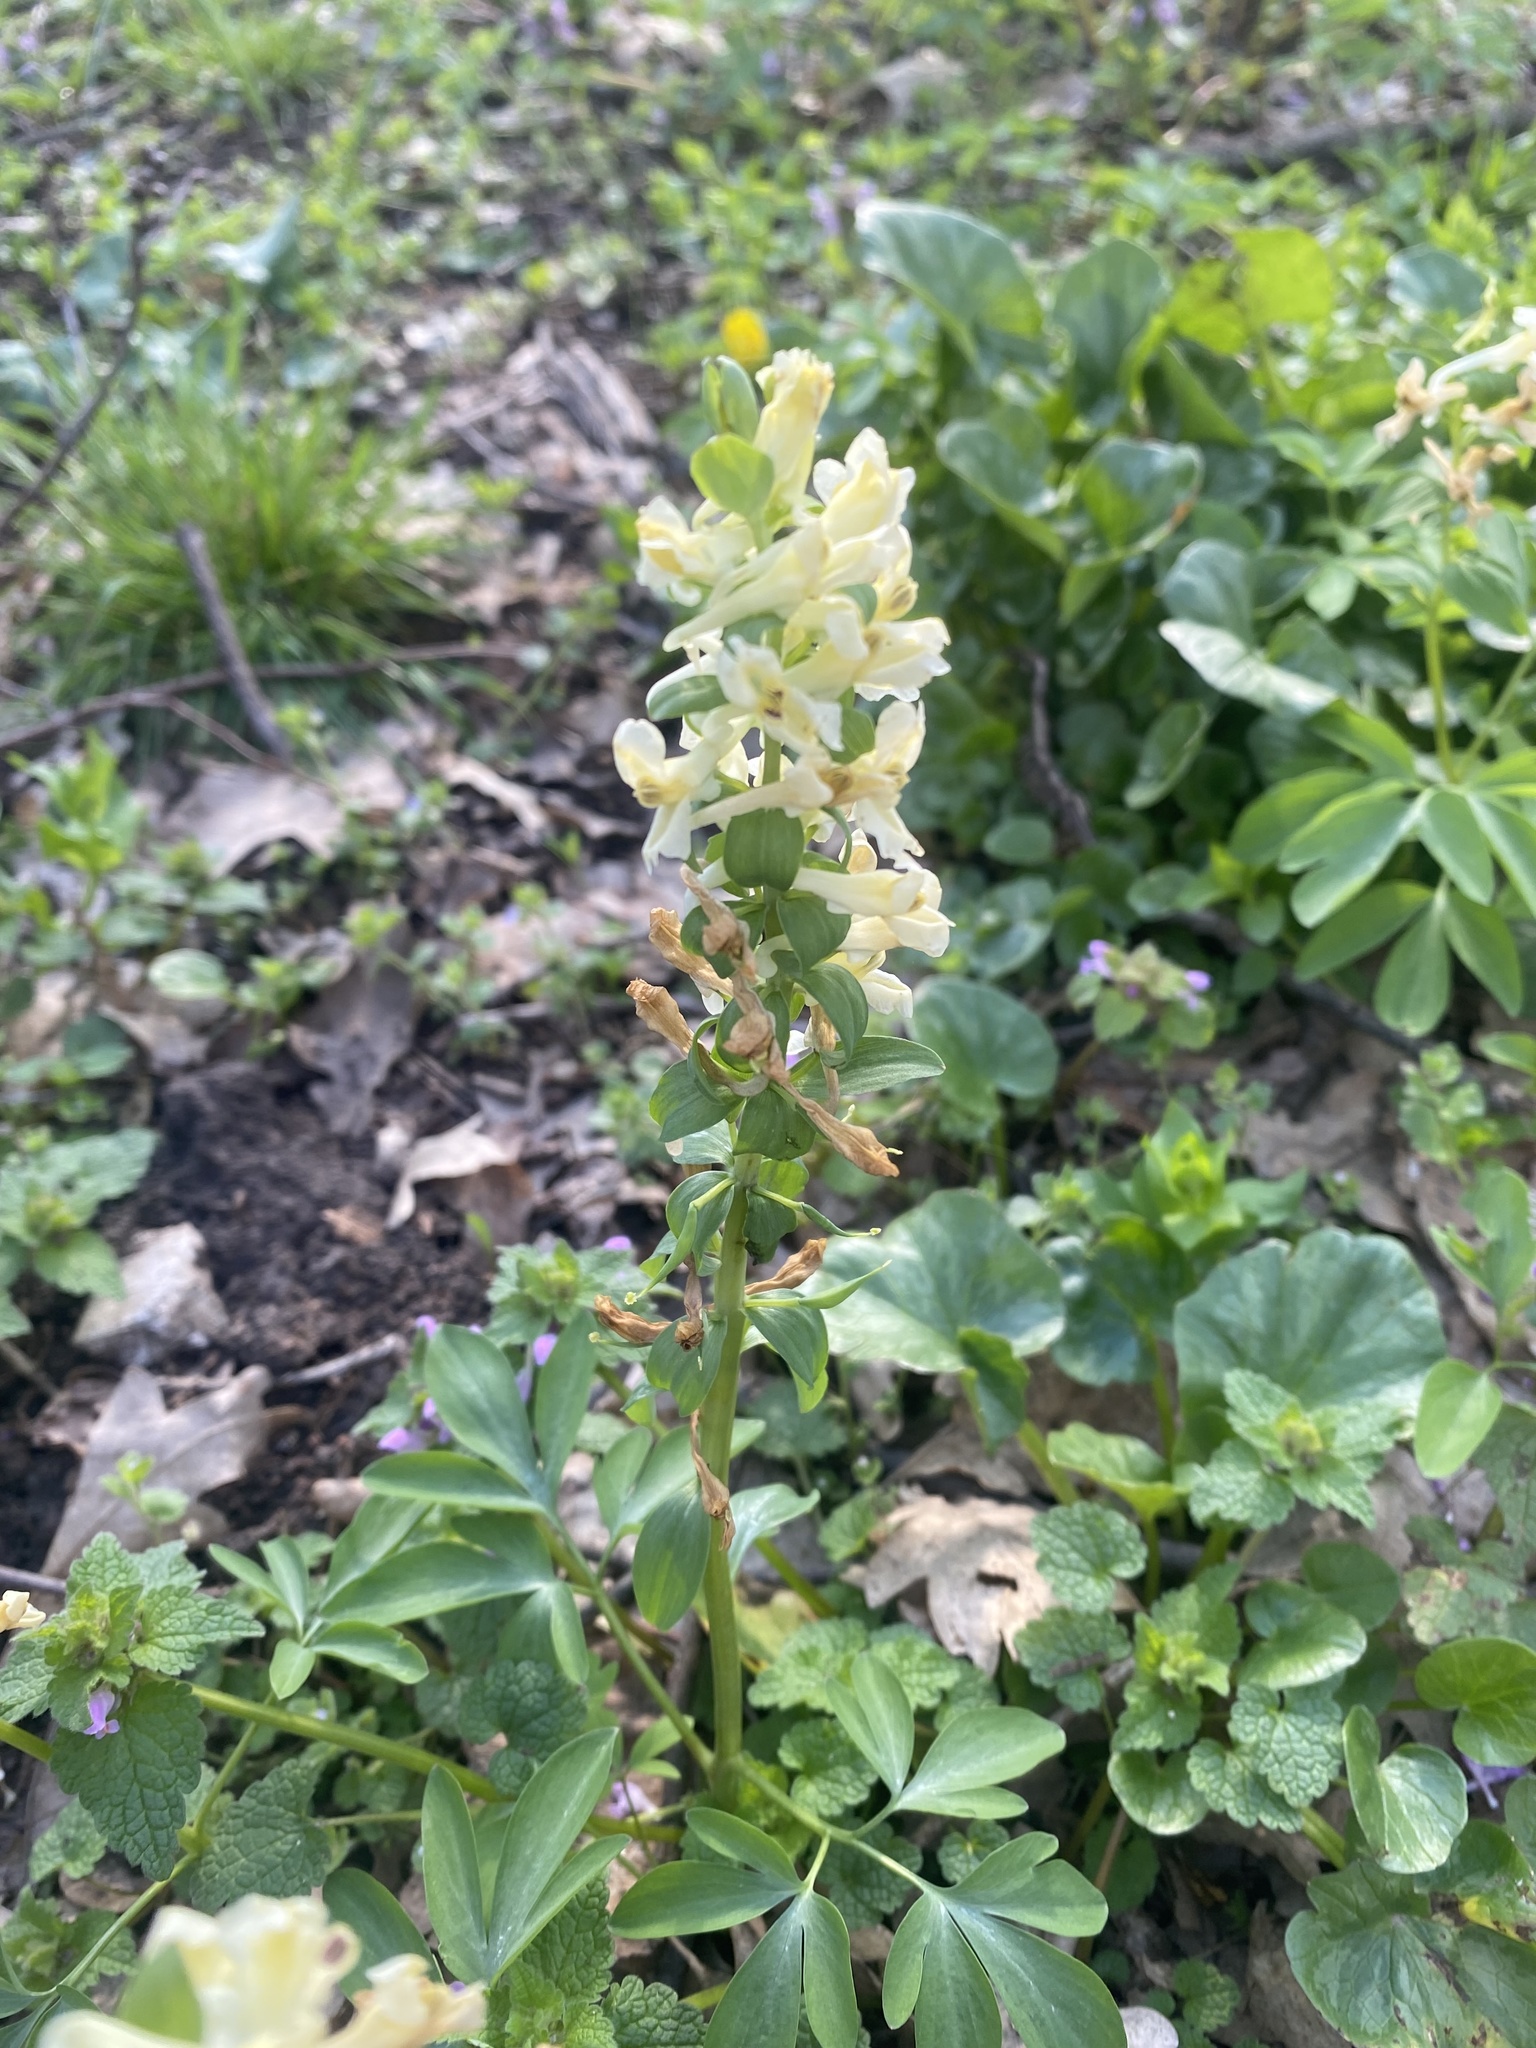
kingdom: Plantae
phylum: Tracheophyta
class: Magnoliopsida
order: Ranunculales
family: Papaveraceae
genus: Corydalis
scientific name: Corydalis cava
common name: Hollowroot
